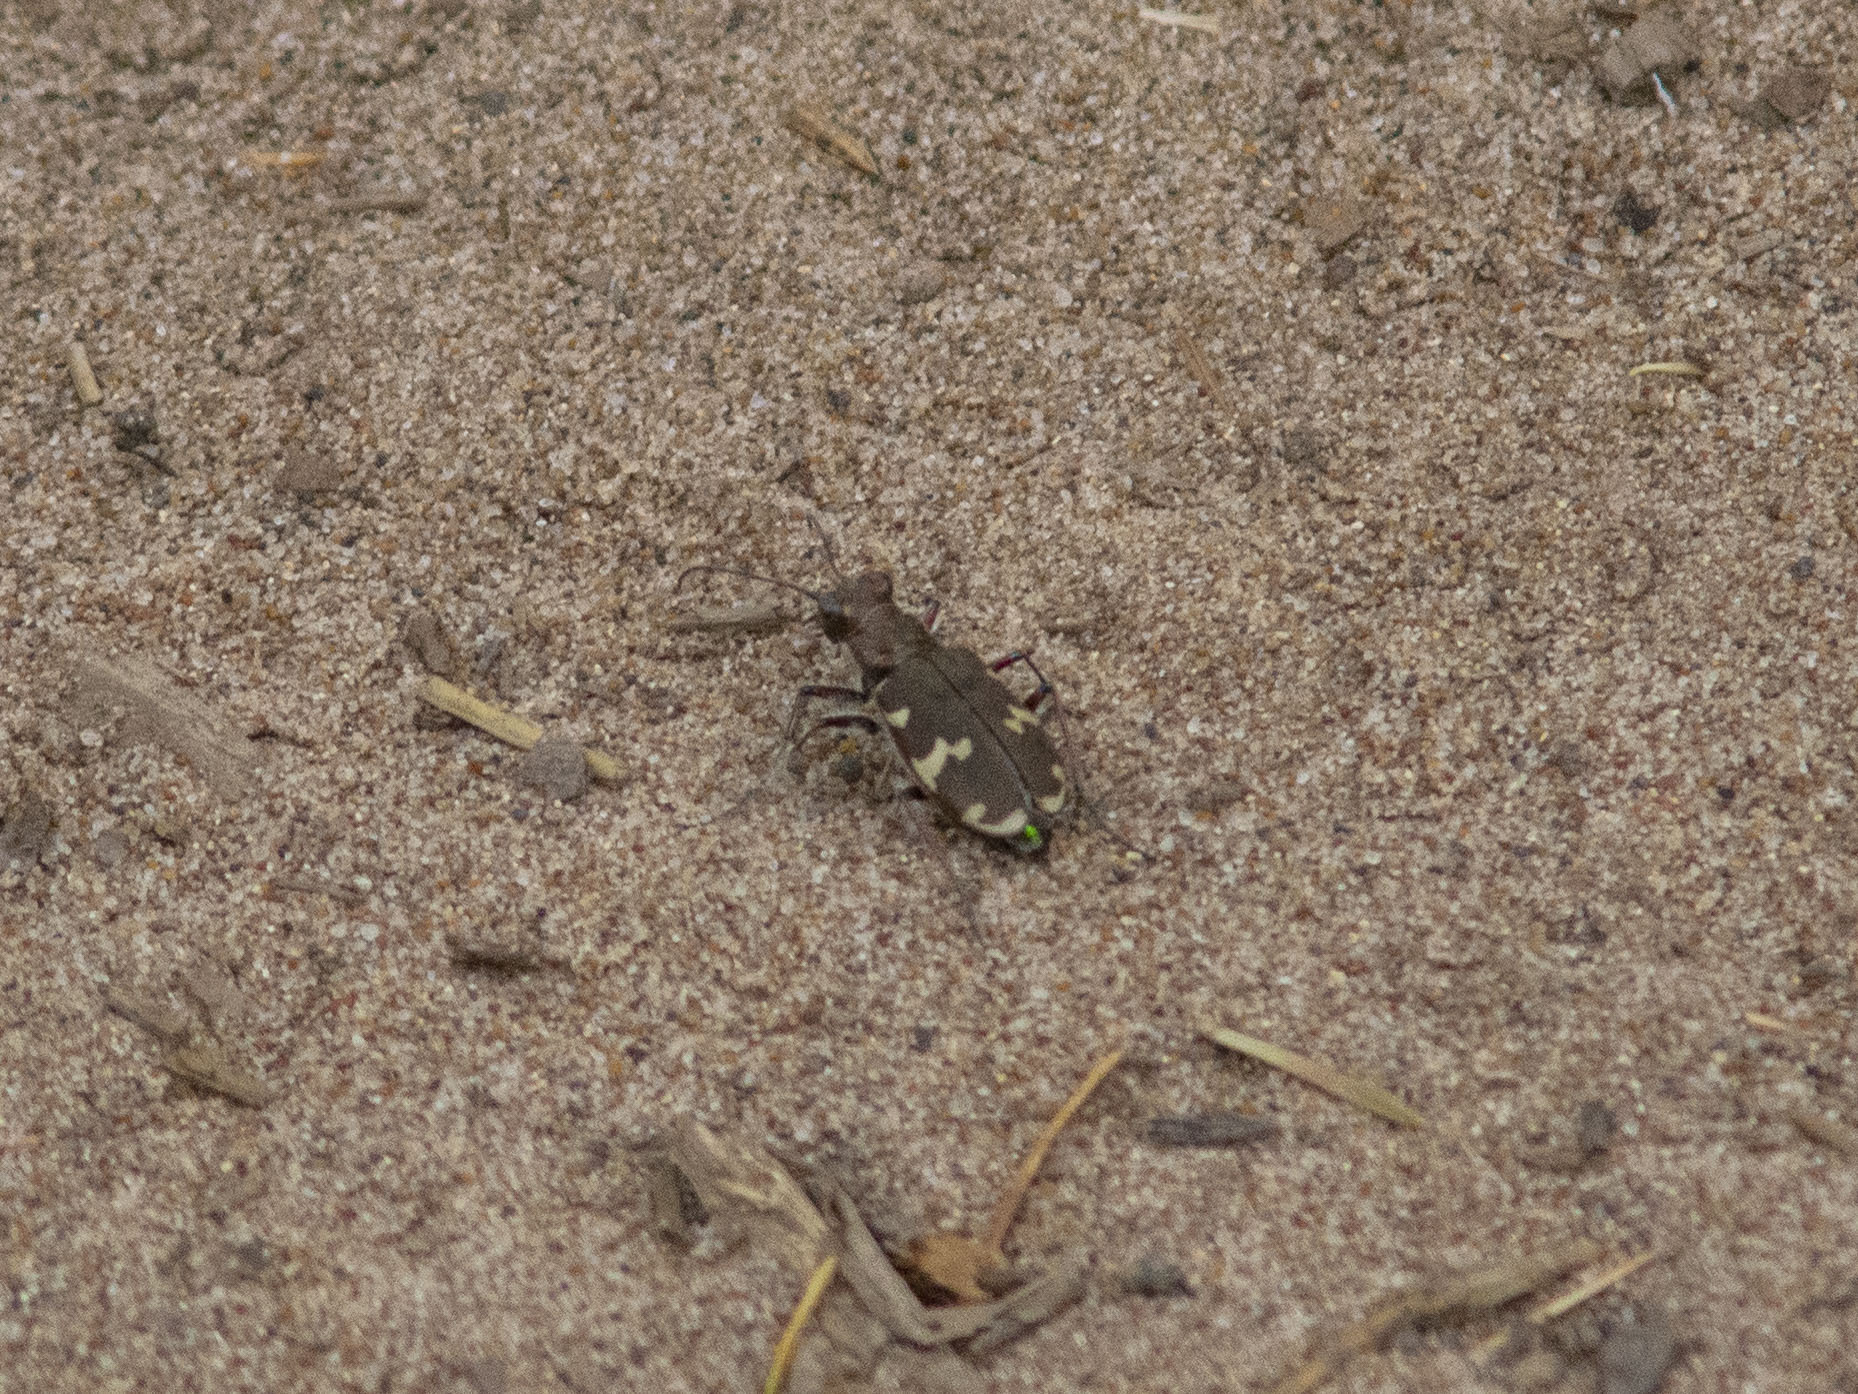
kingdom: Animalia
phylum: Arthropoda
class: Insecta
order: Coleoptera
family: Carabidae
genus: Cicindela
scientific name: Cicindela hybrida
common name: Northern dune tiger beetle
